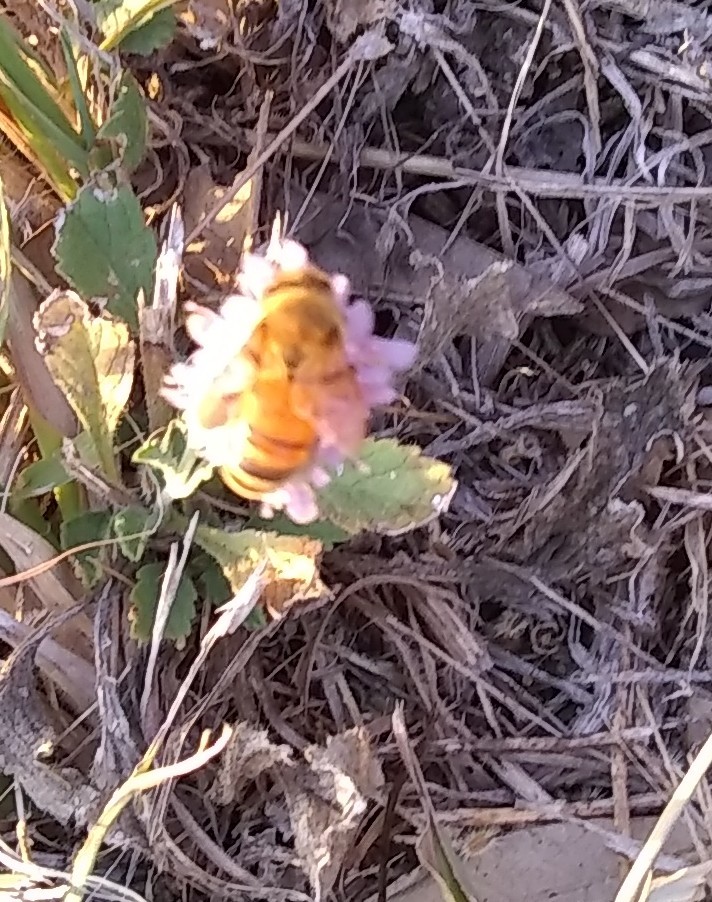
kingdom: Animalia
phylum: Arthropoda
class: Insecta
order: Hymenoptera
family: Apidae
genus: Apis
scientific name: Apis mellifera
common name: Honey bee
